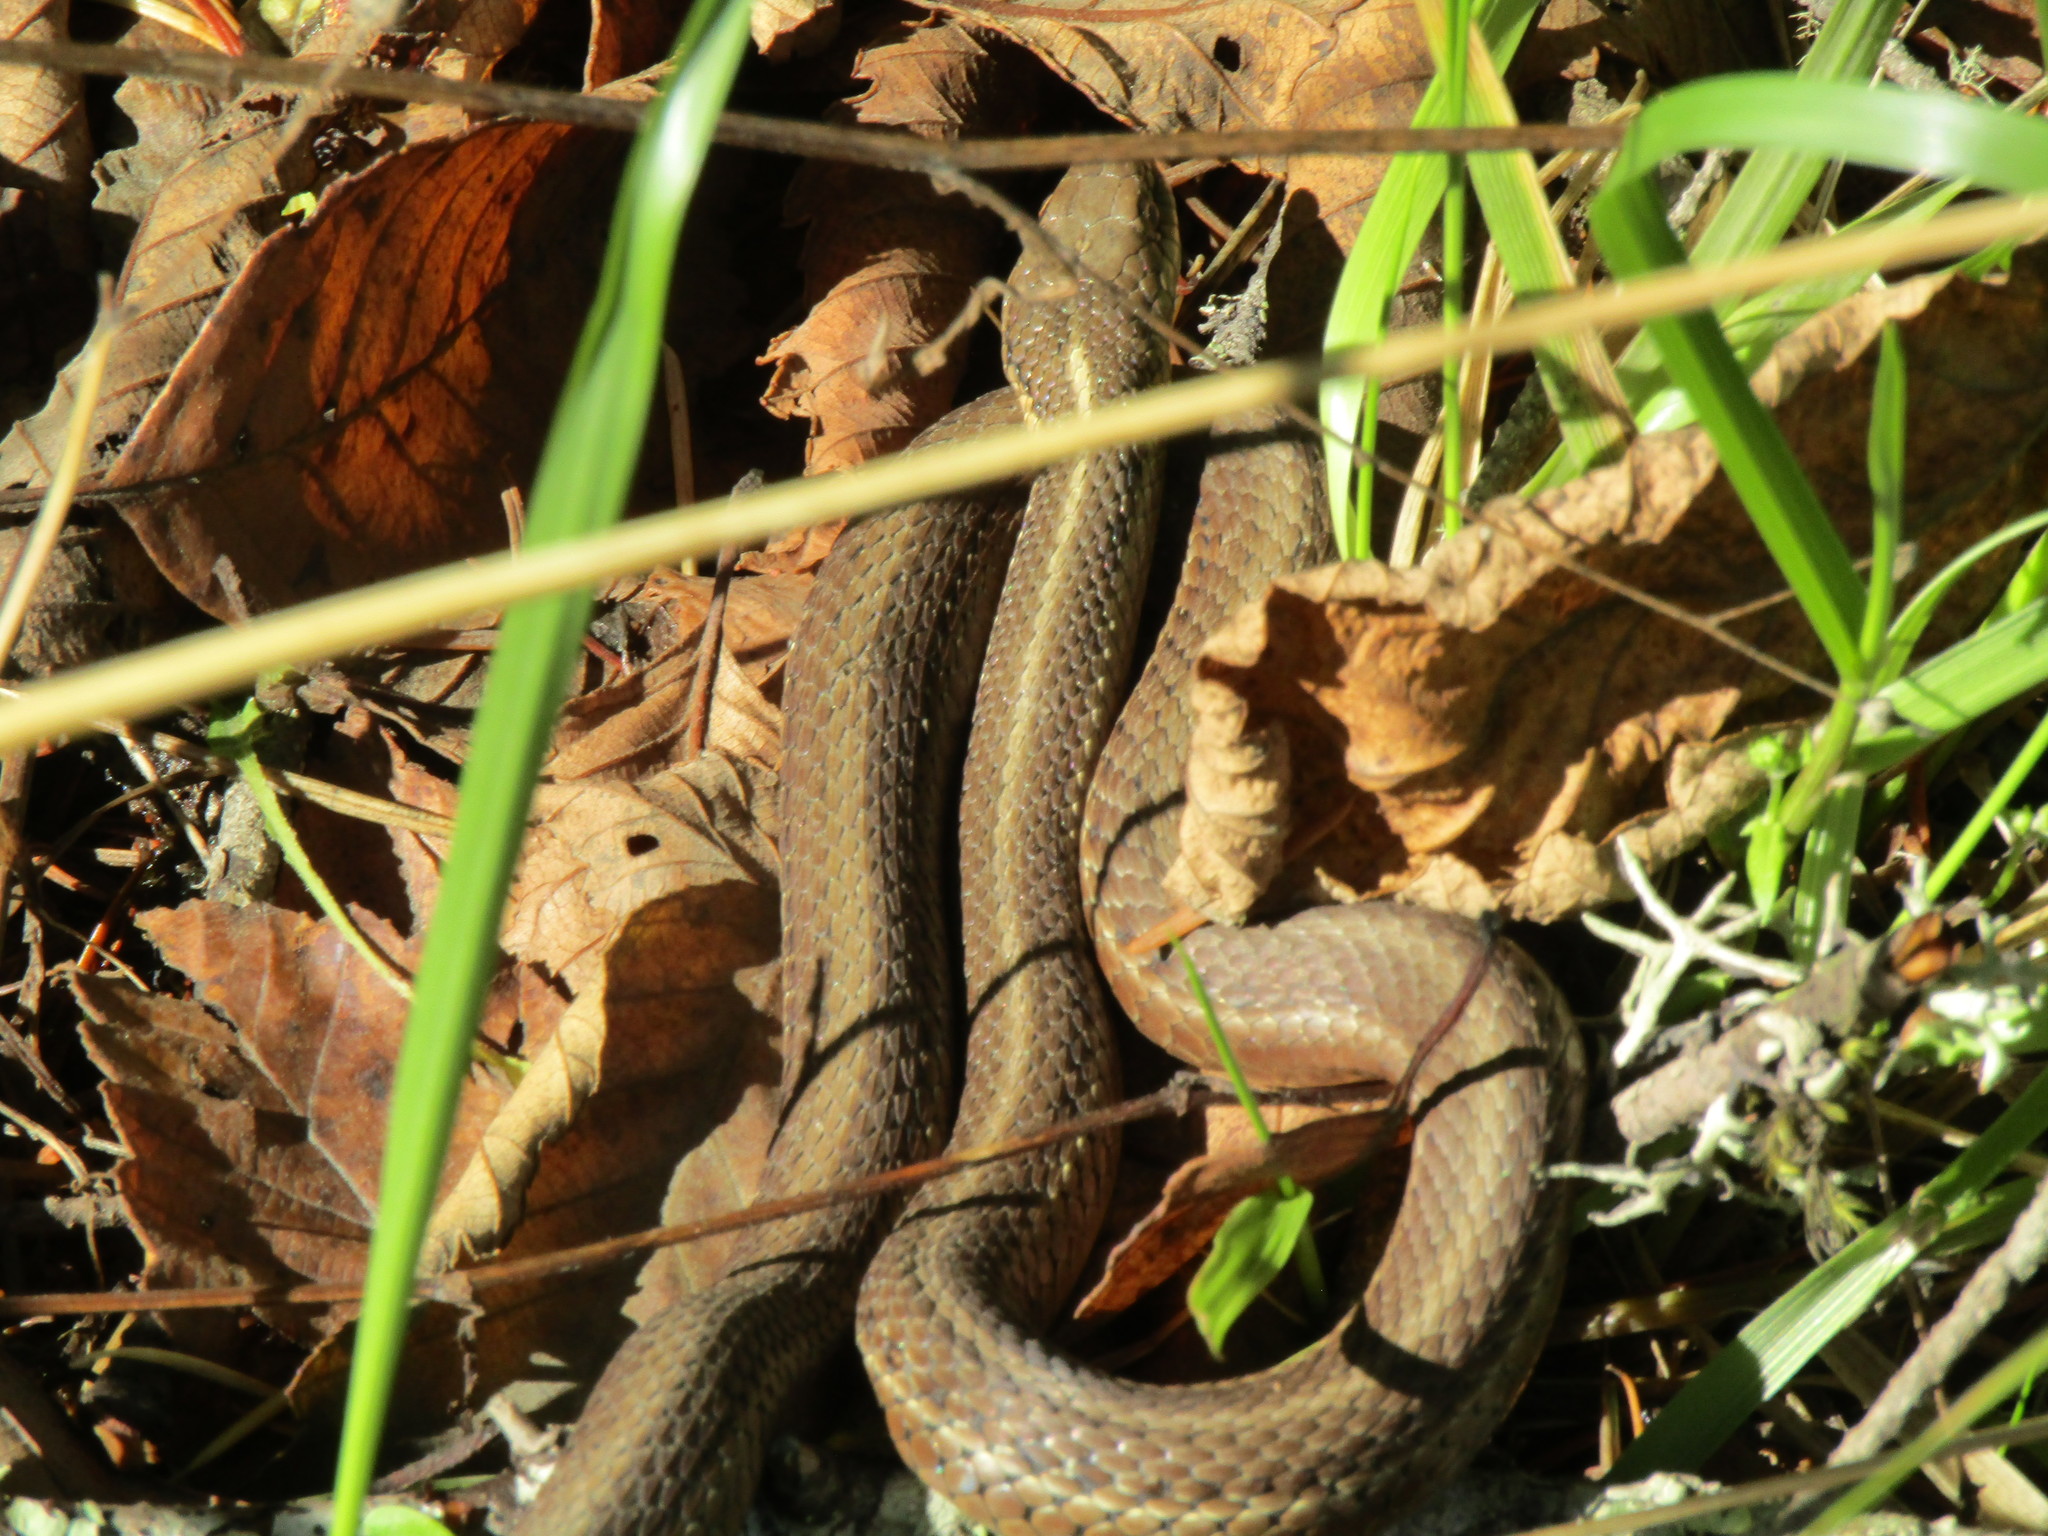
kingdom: Animalia
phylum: Chordata
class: Squamata
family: Colubridae
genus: Thamnophis
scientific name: Thamnophis ordinoides
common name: Northwestern garter snake
